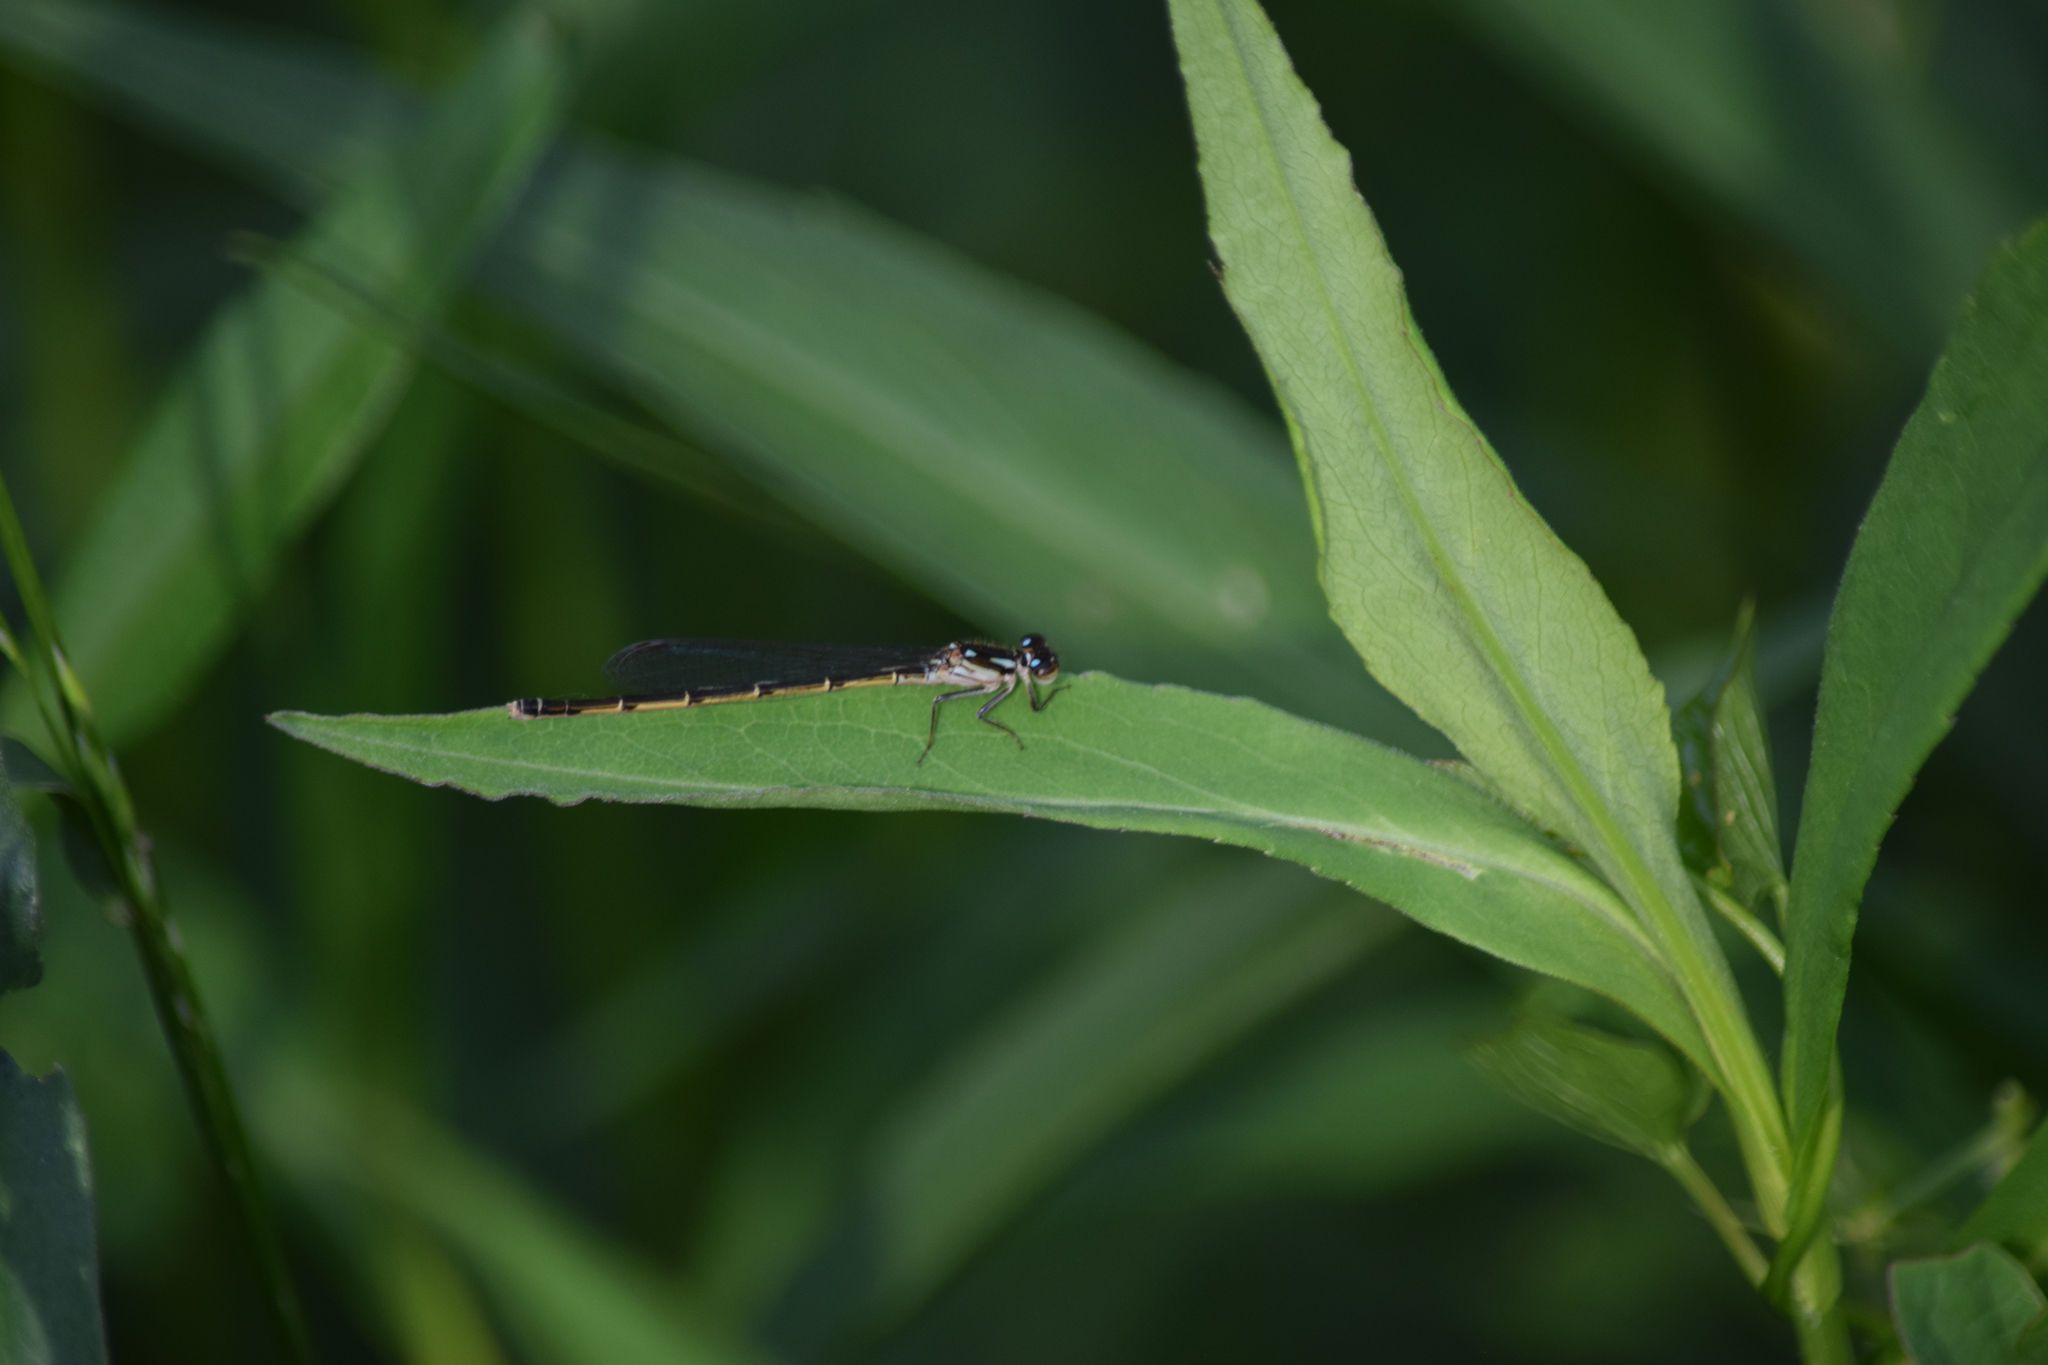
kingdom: Animalia
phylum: Arthropoda
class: Insecta
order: Odonata
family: Coenagrionidae
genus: Ischnura
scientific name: Ischnura posita
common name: Fragile forktail
